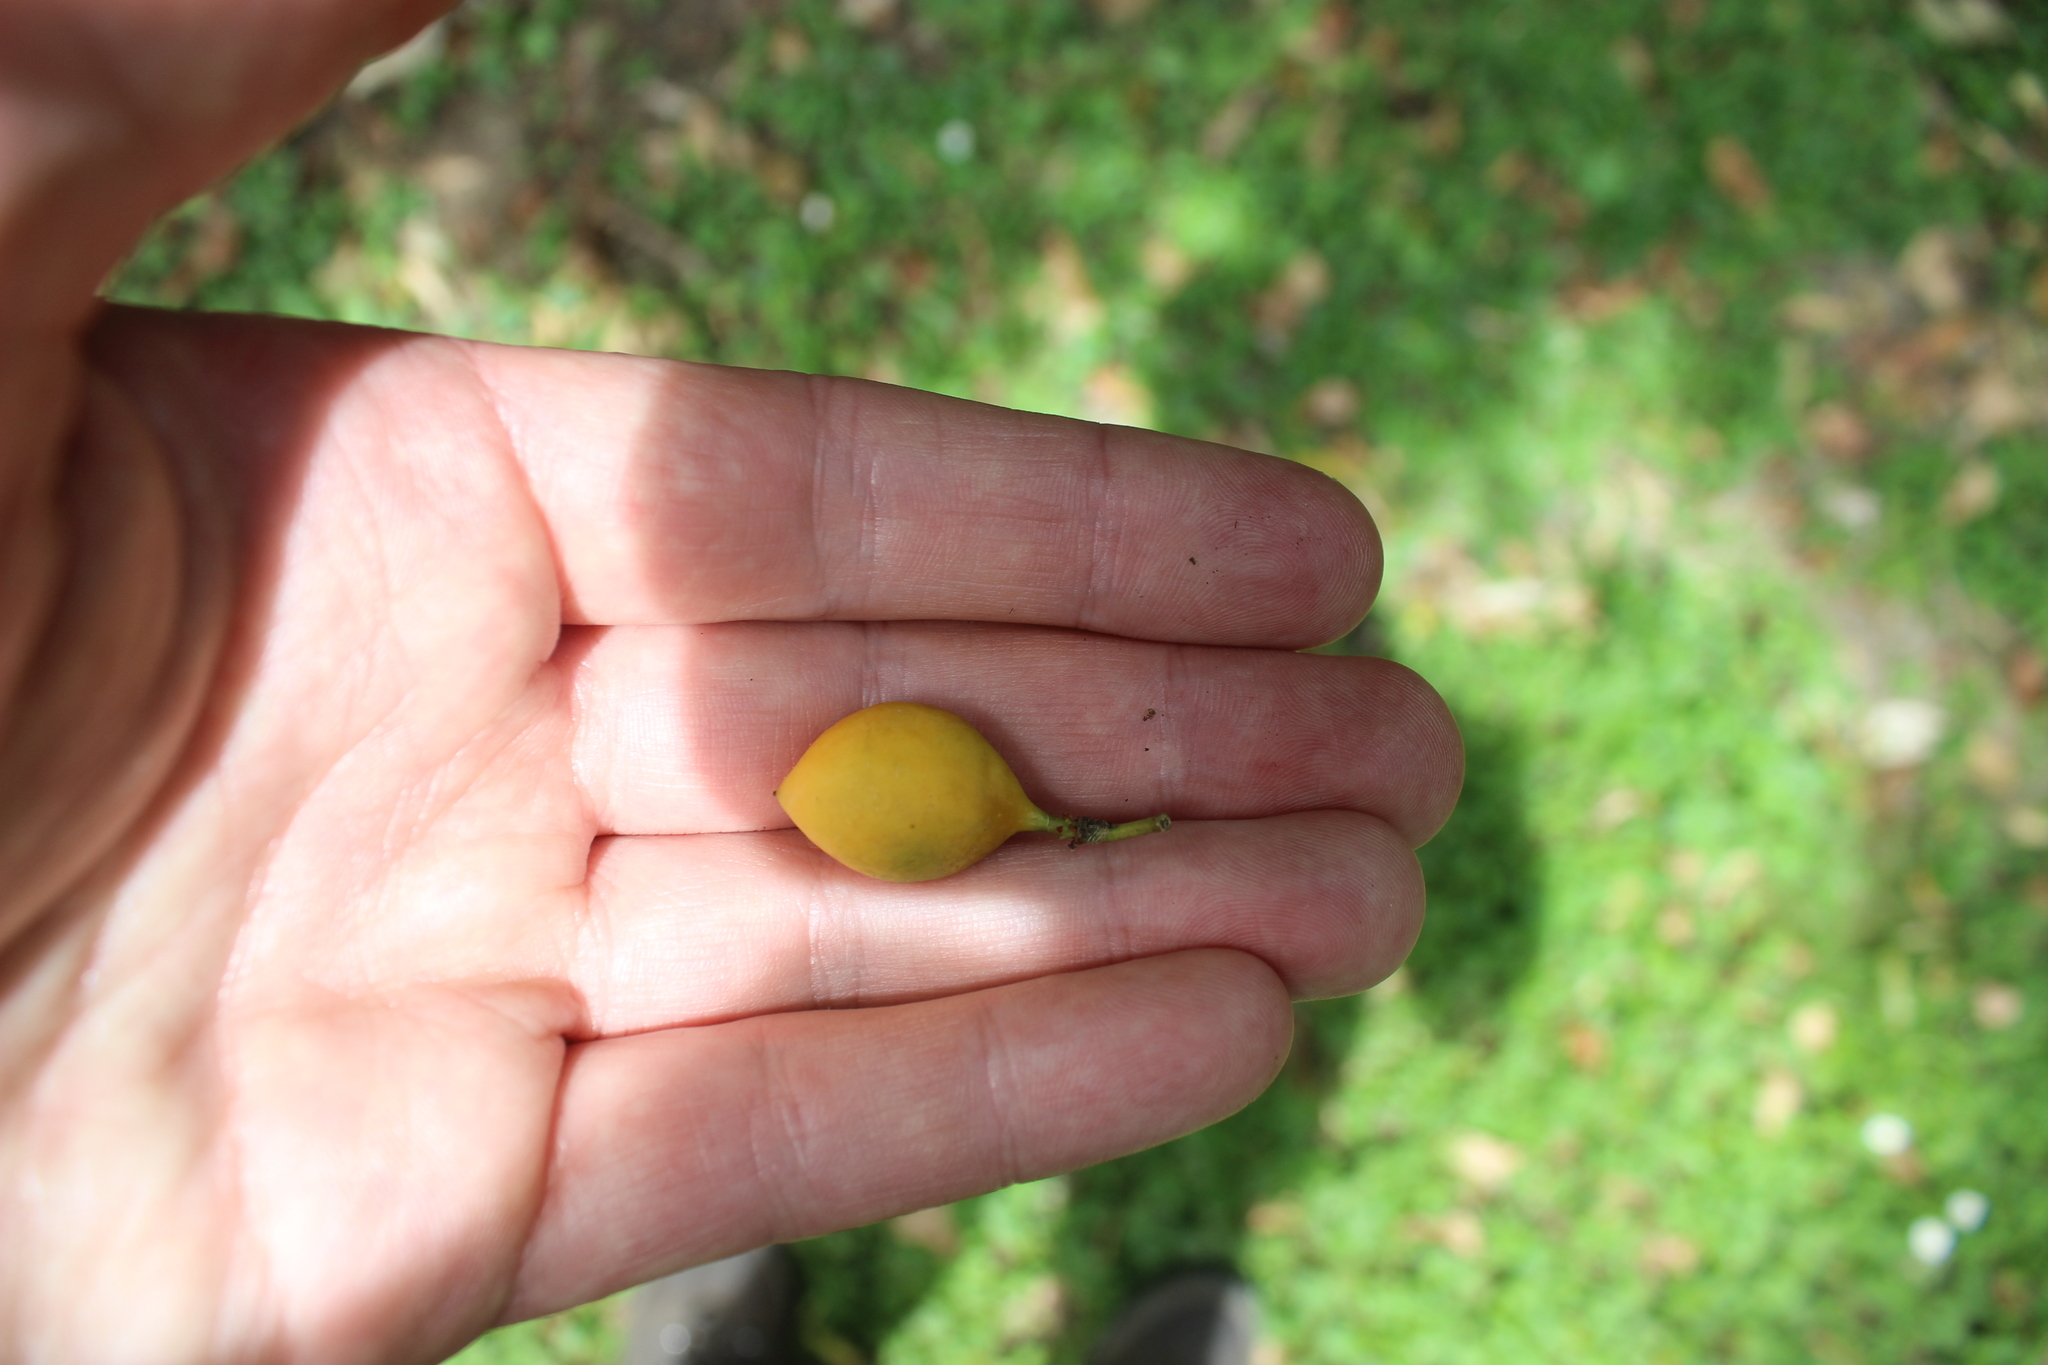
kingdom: Plantae
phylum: Tracheophyta
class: Magnoliopsida
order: Malpighiales
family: Passifloraceae
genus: Passiflora
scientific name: Passiflora tetrandra
